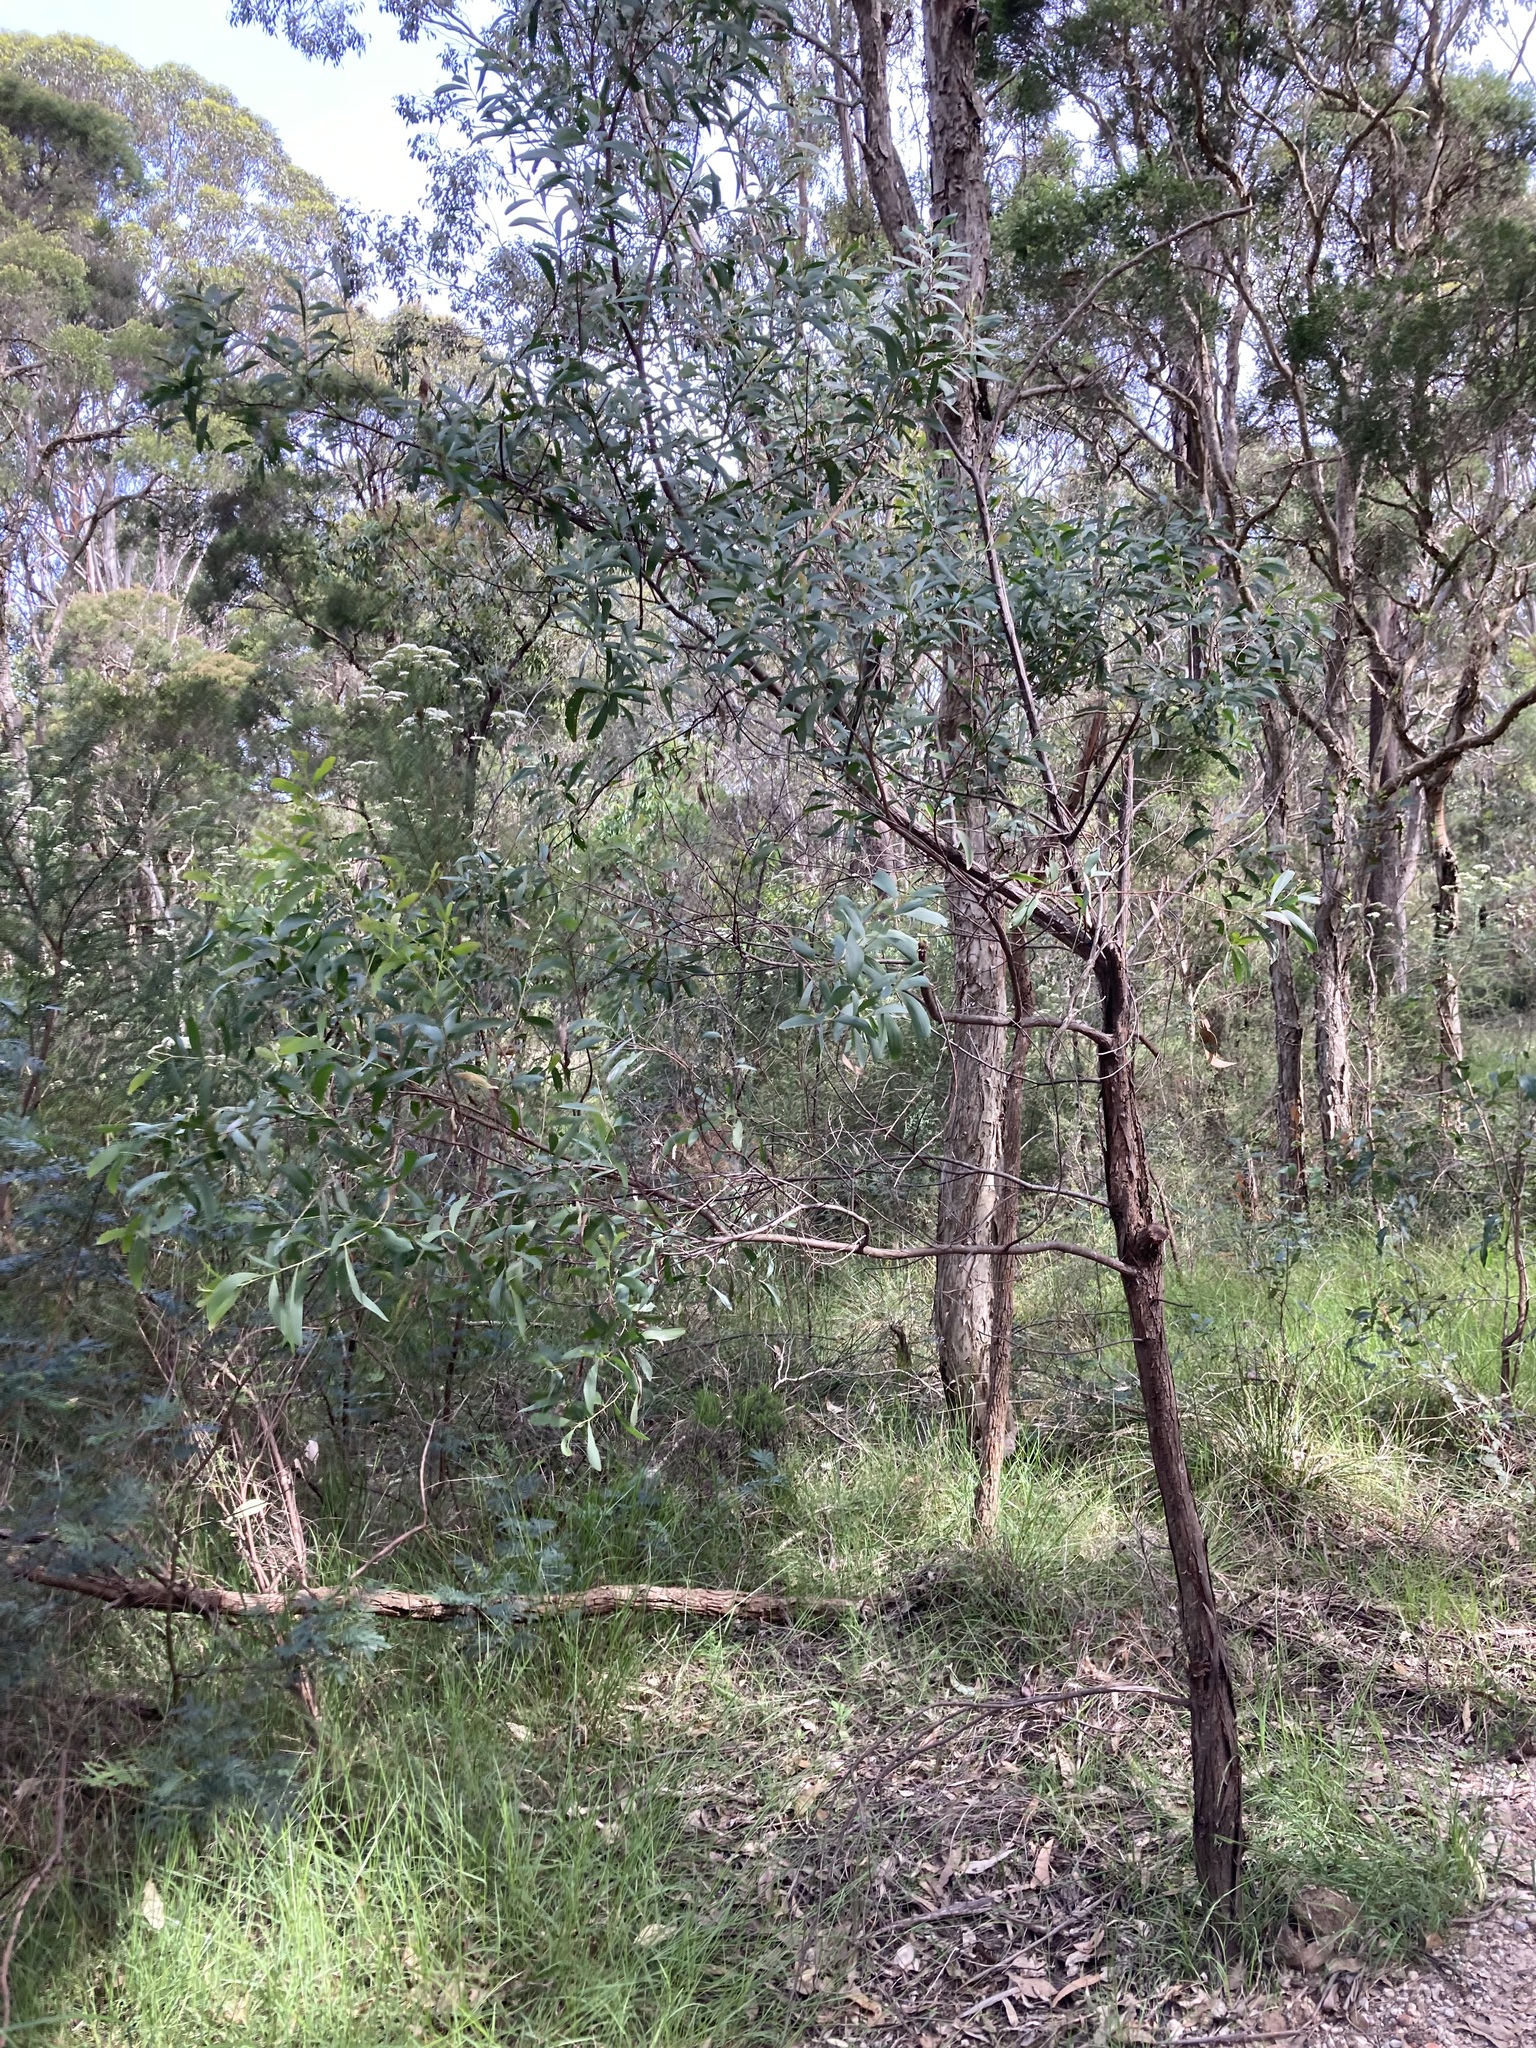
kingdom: Plantae
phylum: Tracheophyta
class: Magnoliopsida
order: Fabales
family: Fabaceae
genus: Acacia
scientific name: Acacia binervia
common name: Coast myall
